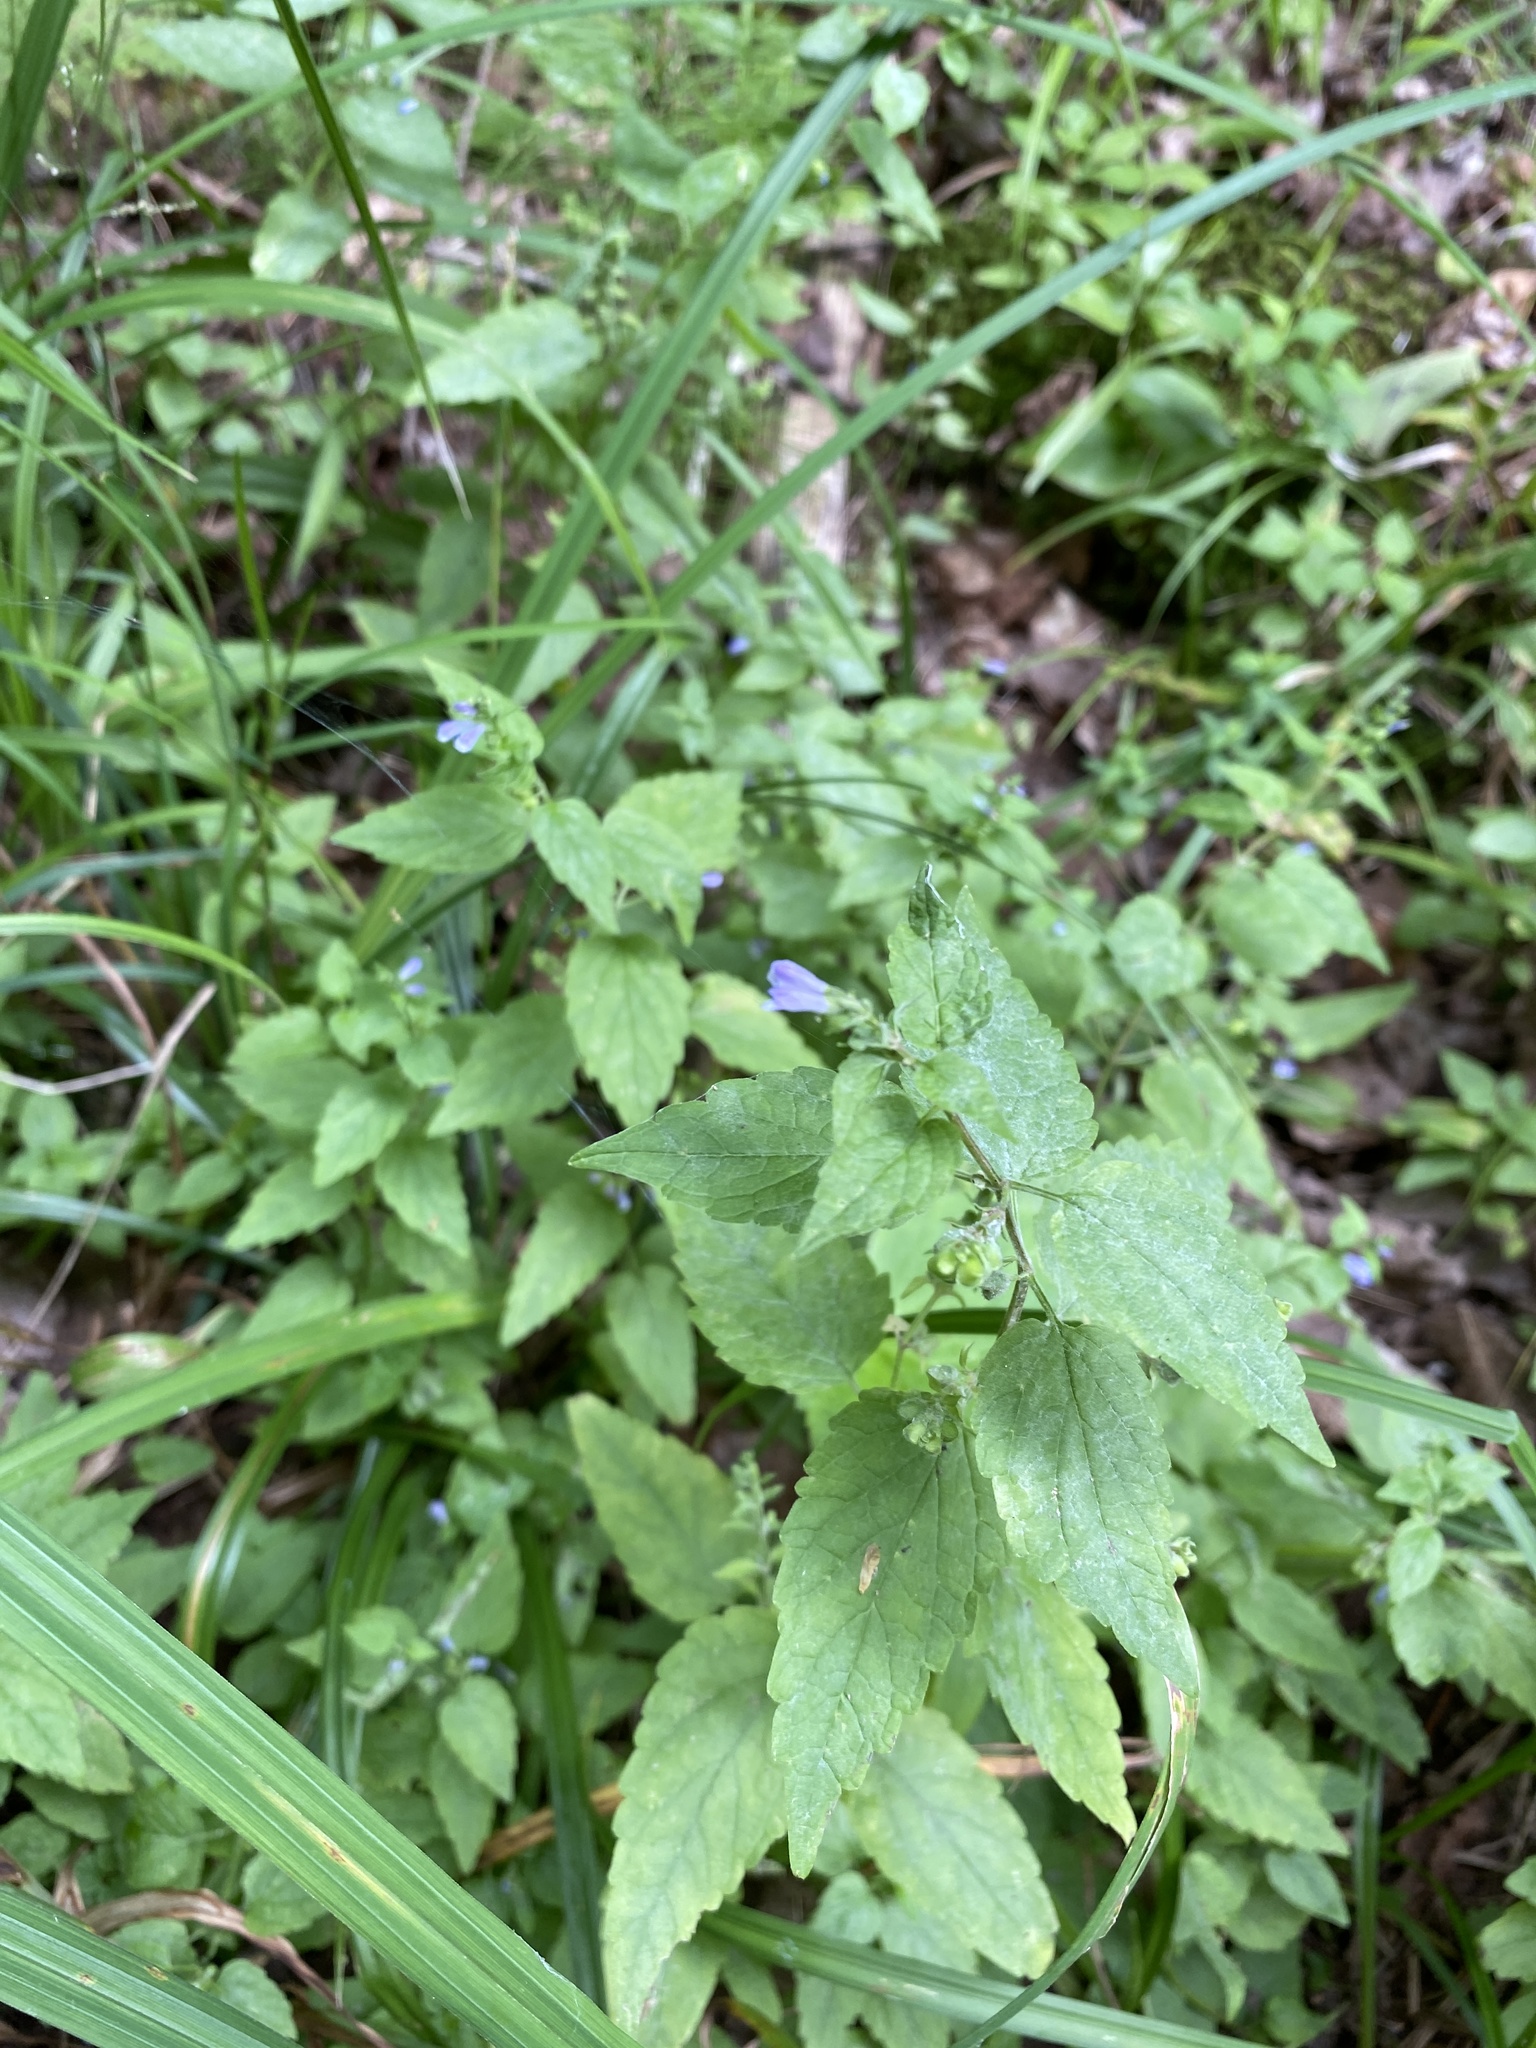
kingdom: Plantae
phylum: Tracheophyta
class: Magnoliopsida
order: Lamiales
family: Lamiaceae
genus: Scutellaria
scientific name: Scutellaria lateriflora
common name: Blue skullcap
